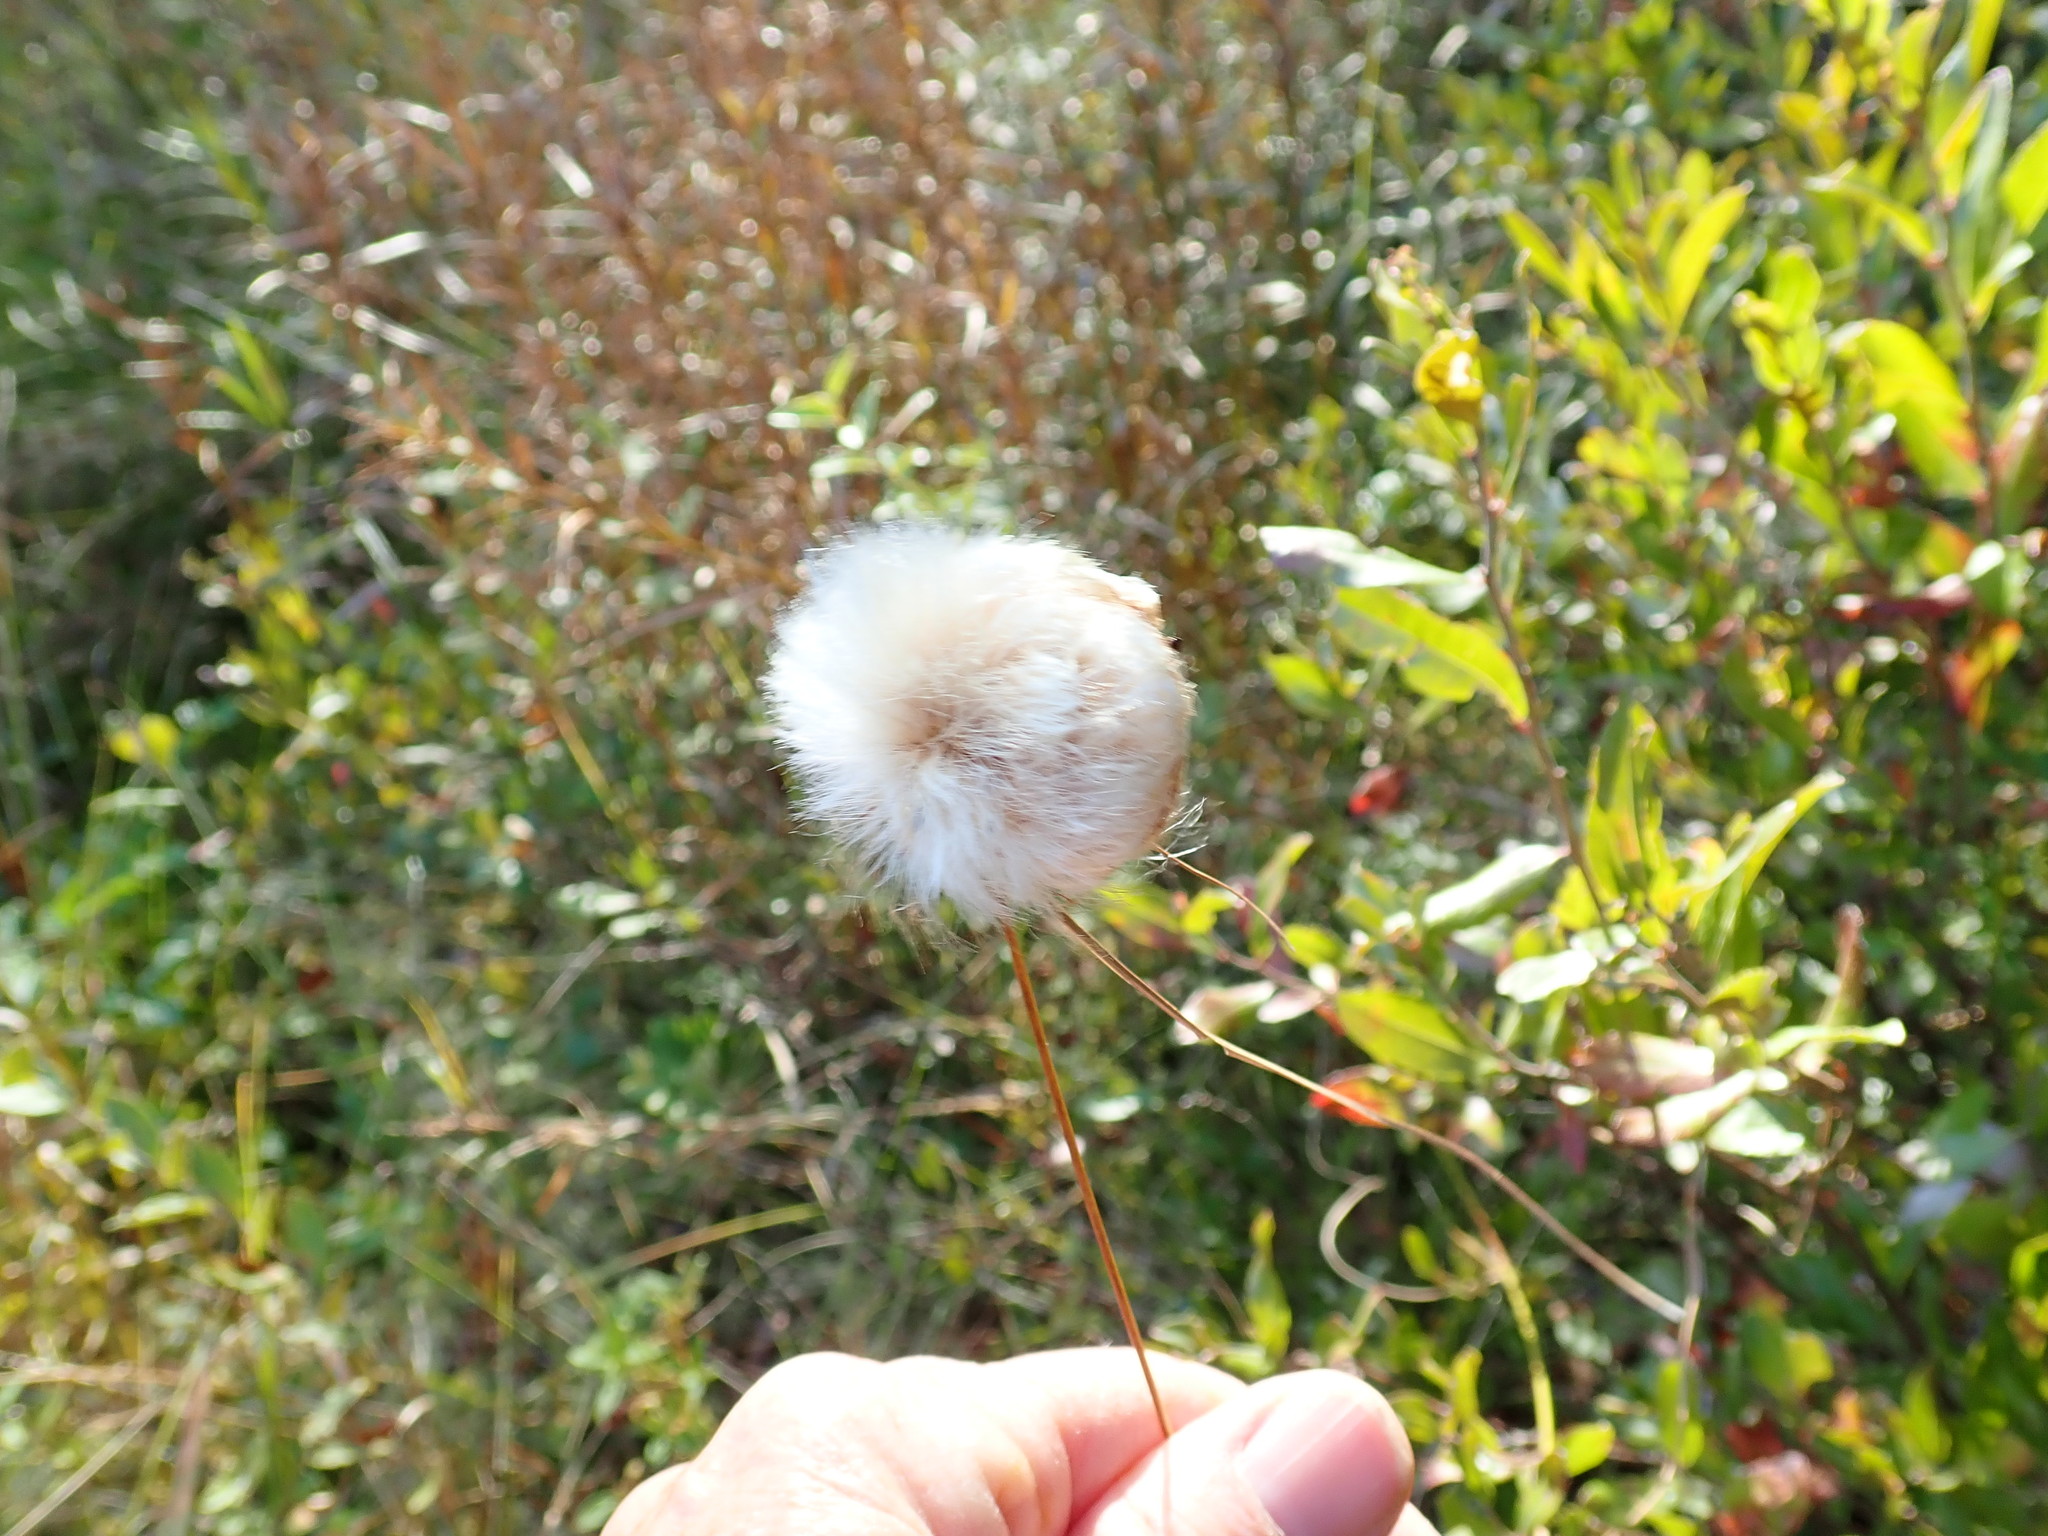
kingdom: Plantae
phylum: Tracheophyta
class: Liliopsida
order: Poales
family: Cyperaceae
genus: Eriophorum
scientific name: Eriophorum
